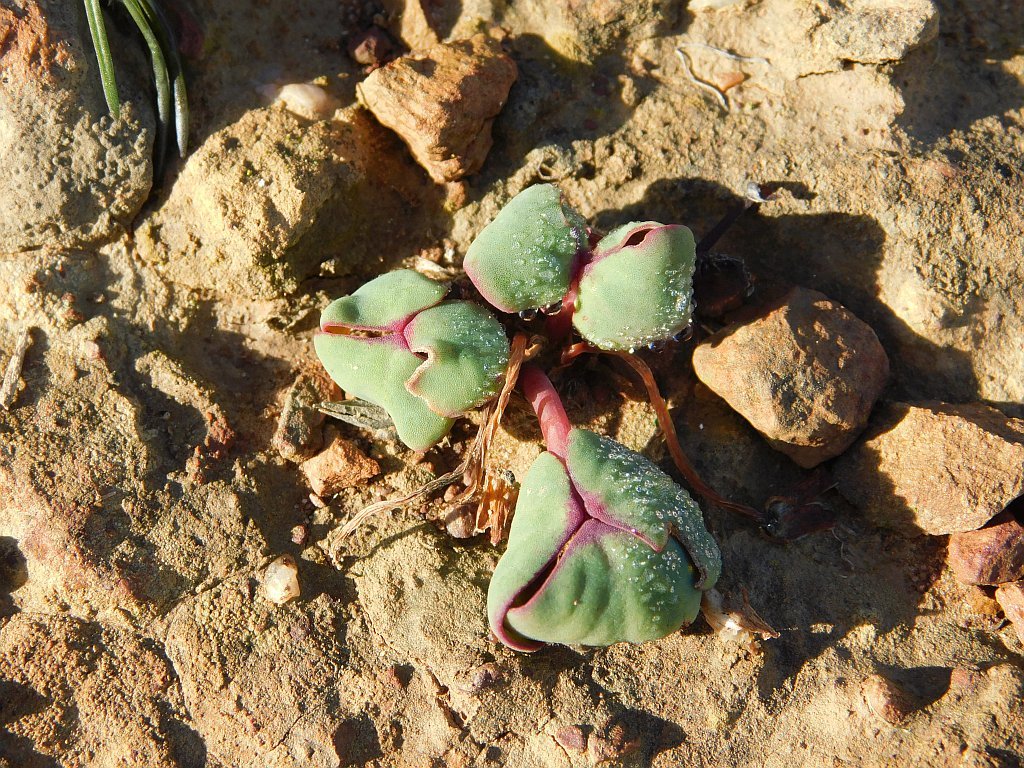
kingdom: Plantae
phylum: Tracheophyta
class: Magnoliopsida
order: Oxalidales
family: Oxalidaceae
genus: Oxalis
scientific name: Oxalis depressa
